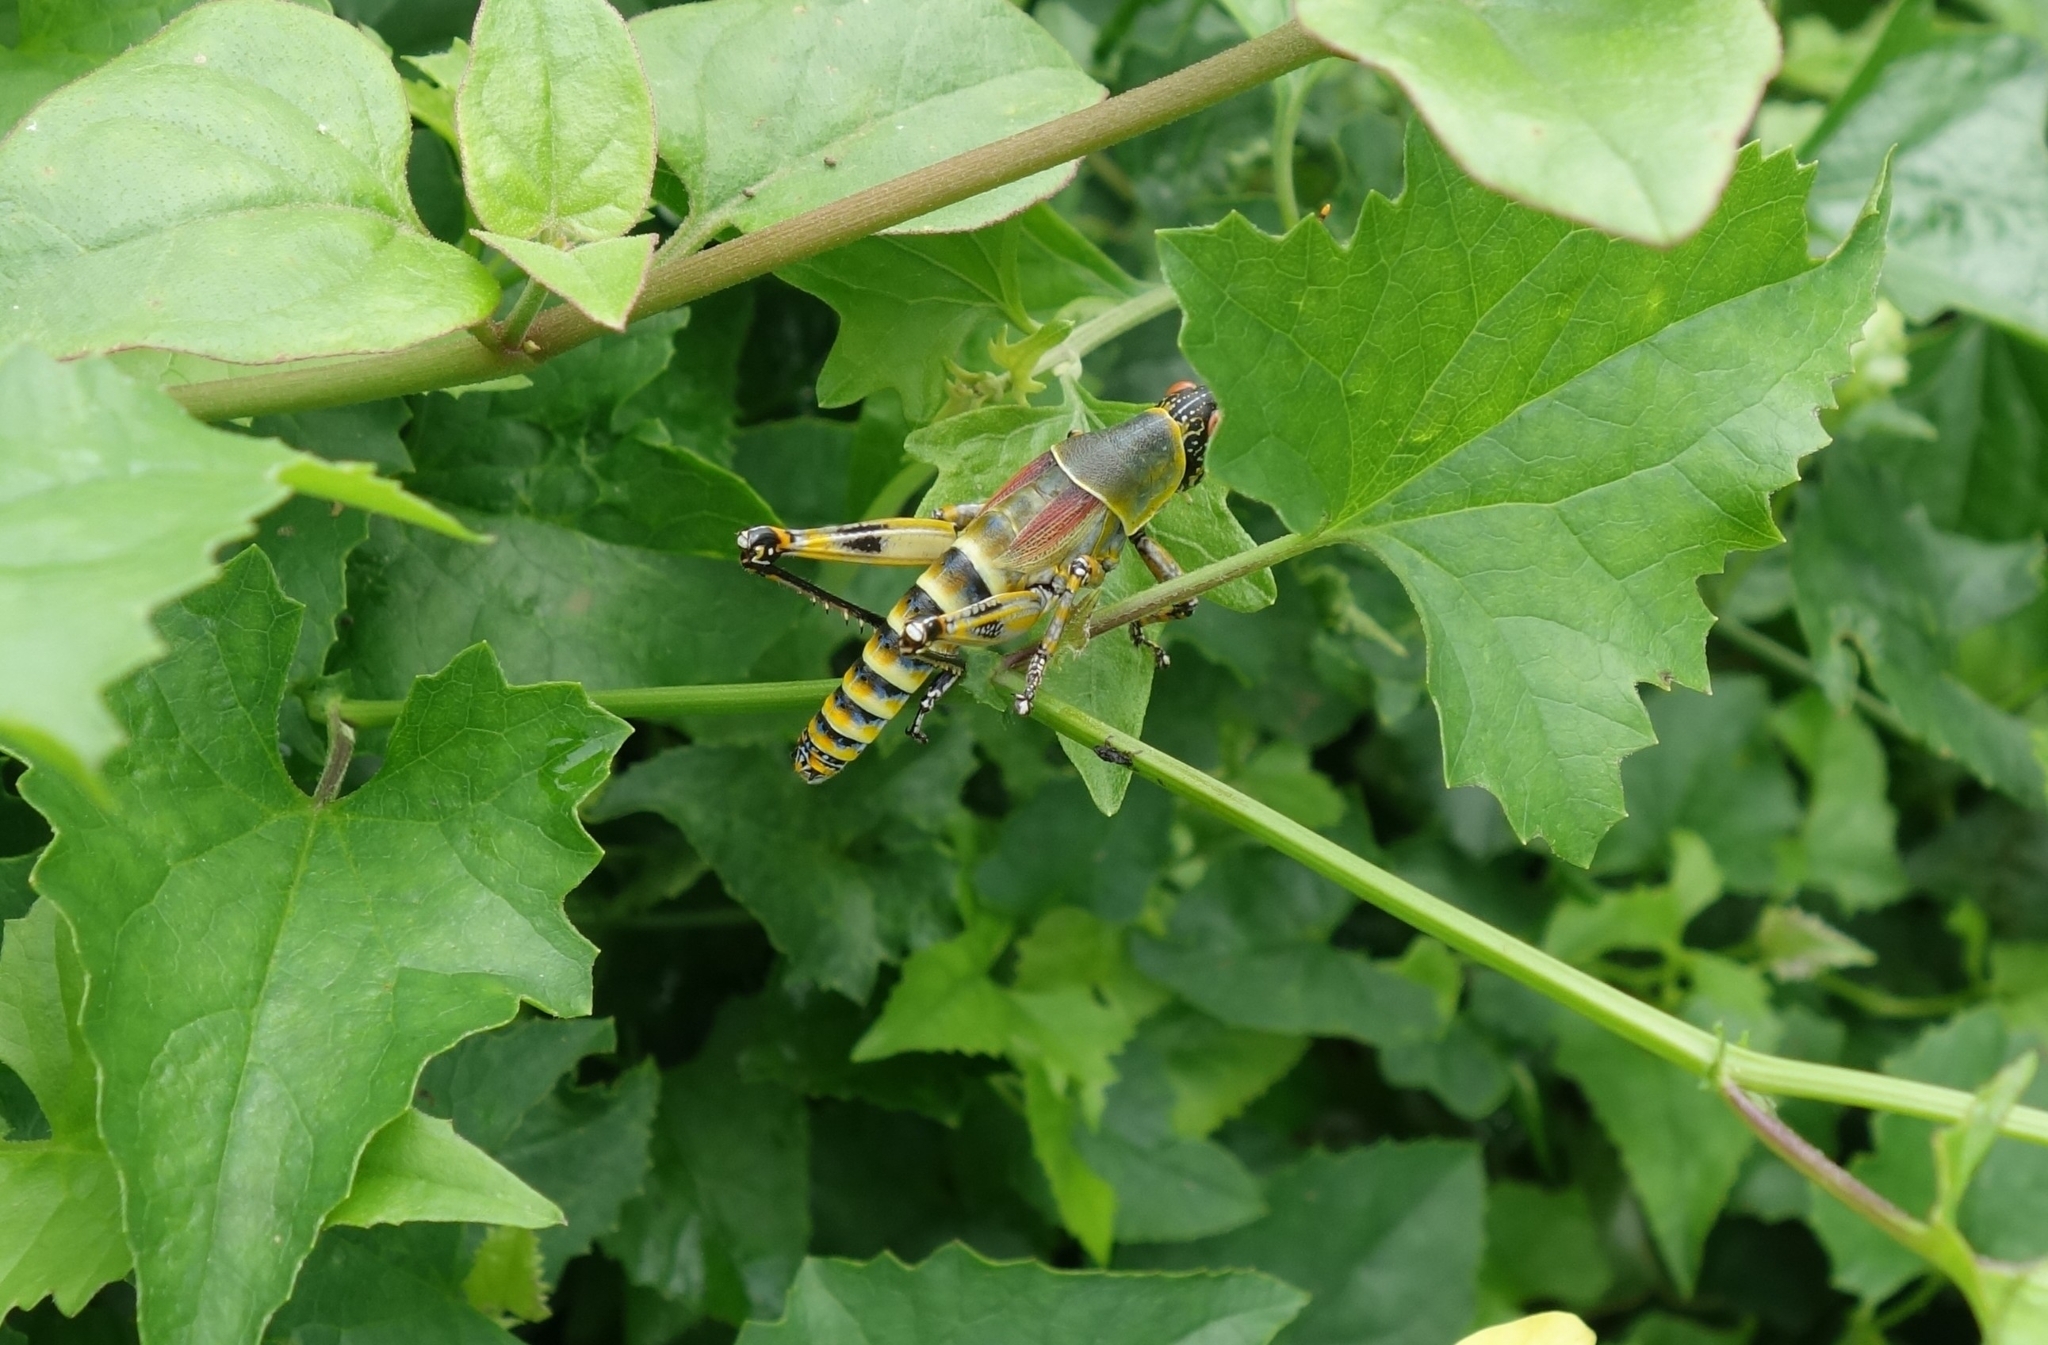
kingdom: Animalia
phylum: Arthropoda
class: Insecta
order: Orthoptera
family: Pyrgomorphidae
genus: Zonocerus
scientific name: Zonocerus elegans
